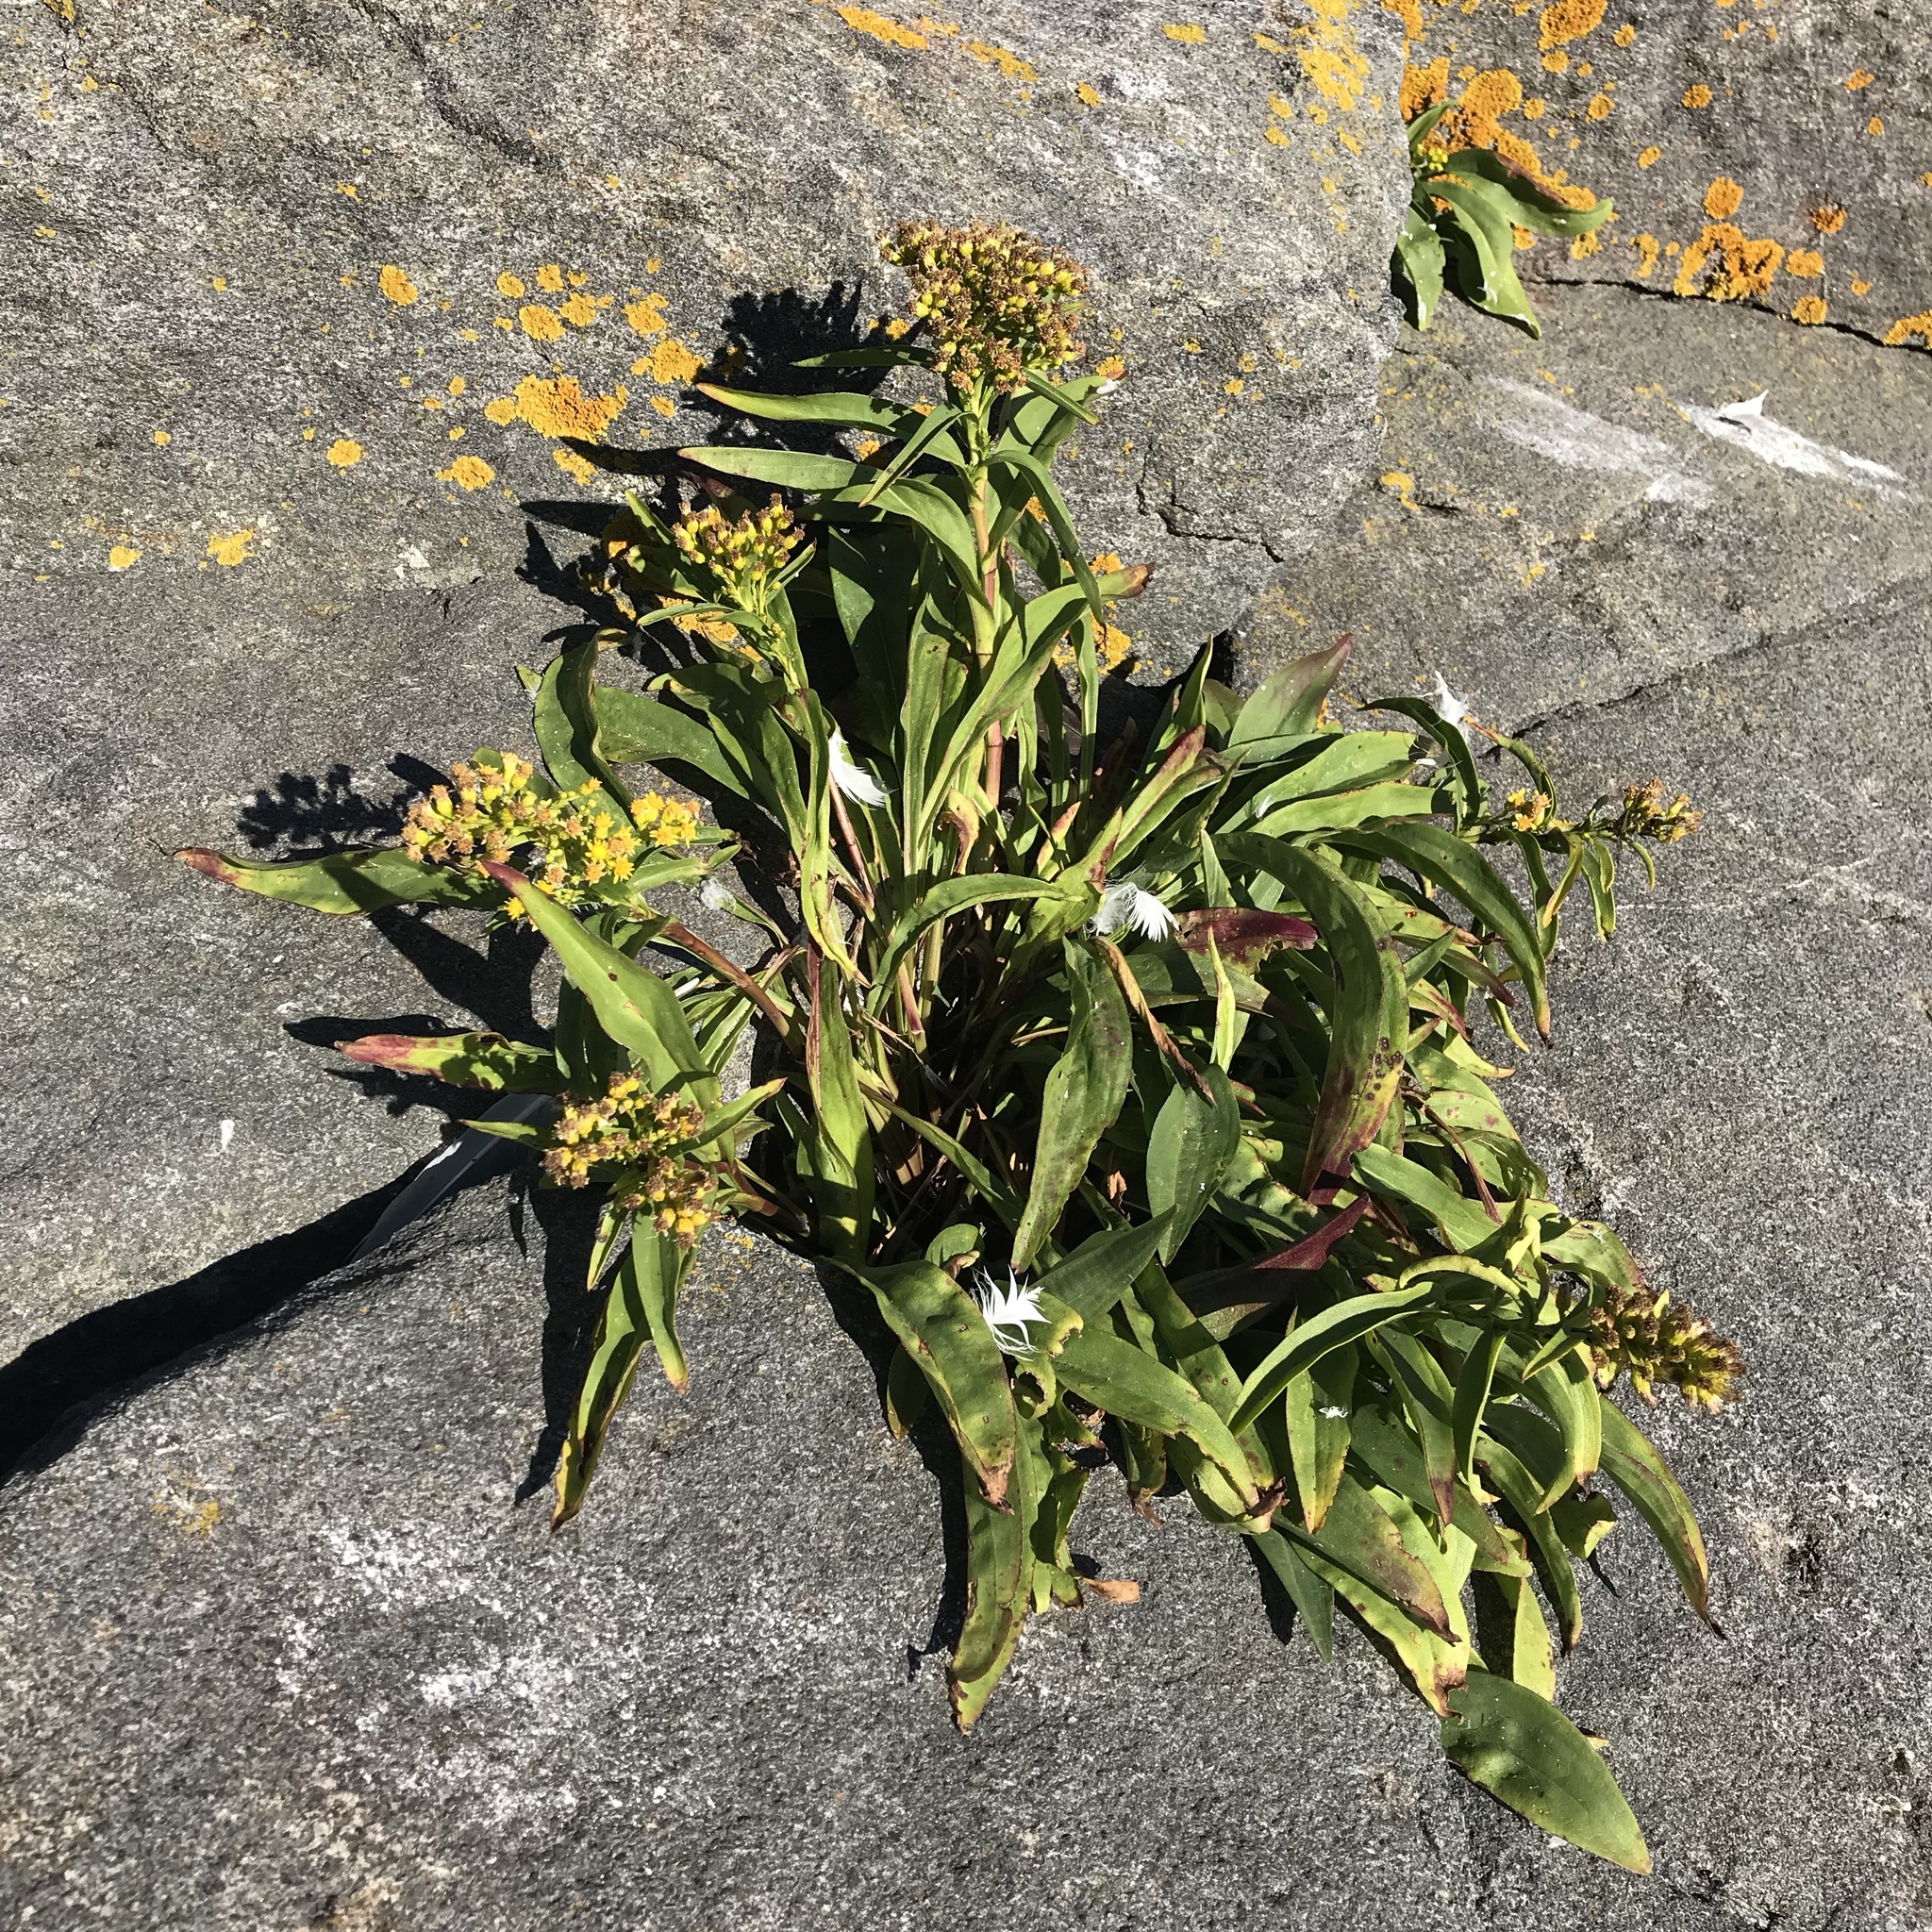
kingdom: Plantae
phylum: Tracheophyta
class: Magnoliopsida
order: Asterales
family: Asteraceae
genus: Solidago
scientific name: Solidago sempervirens
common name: Salt-marsh goldenrod
